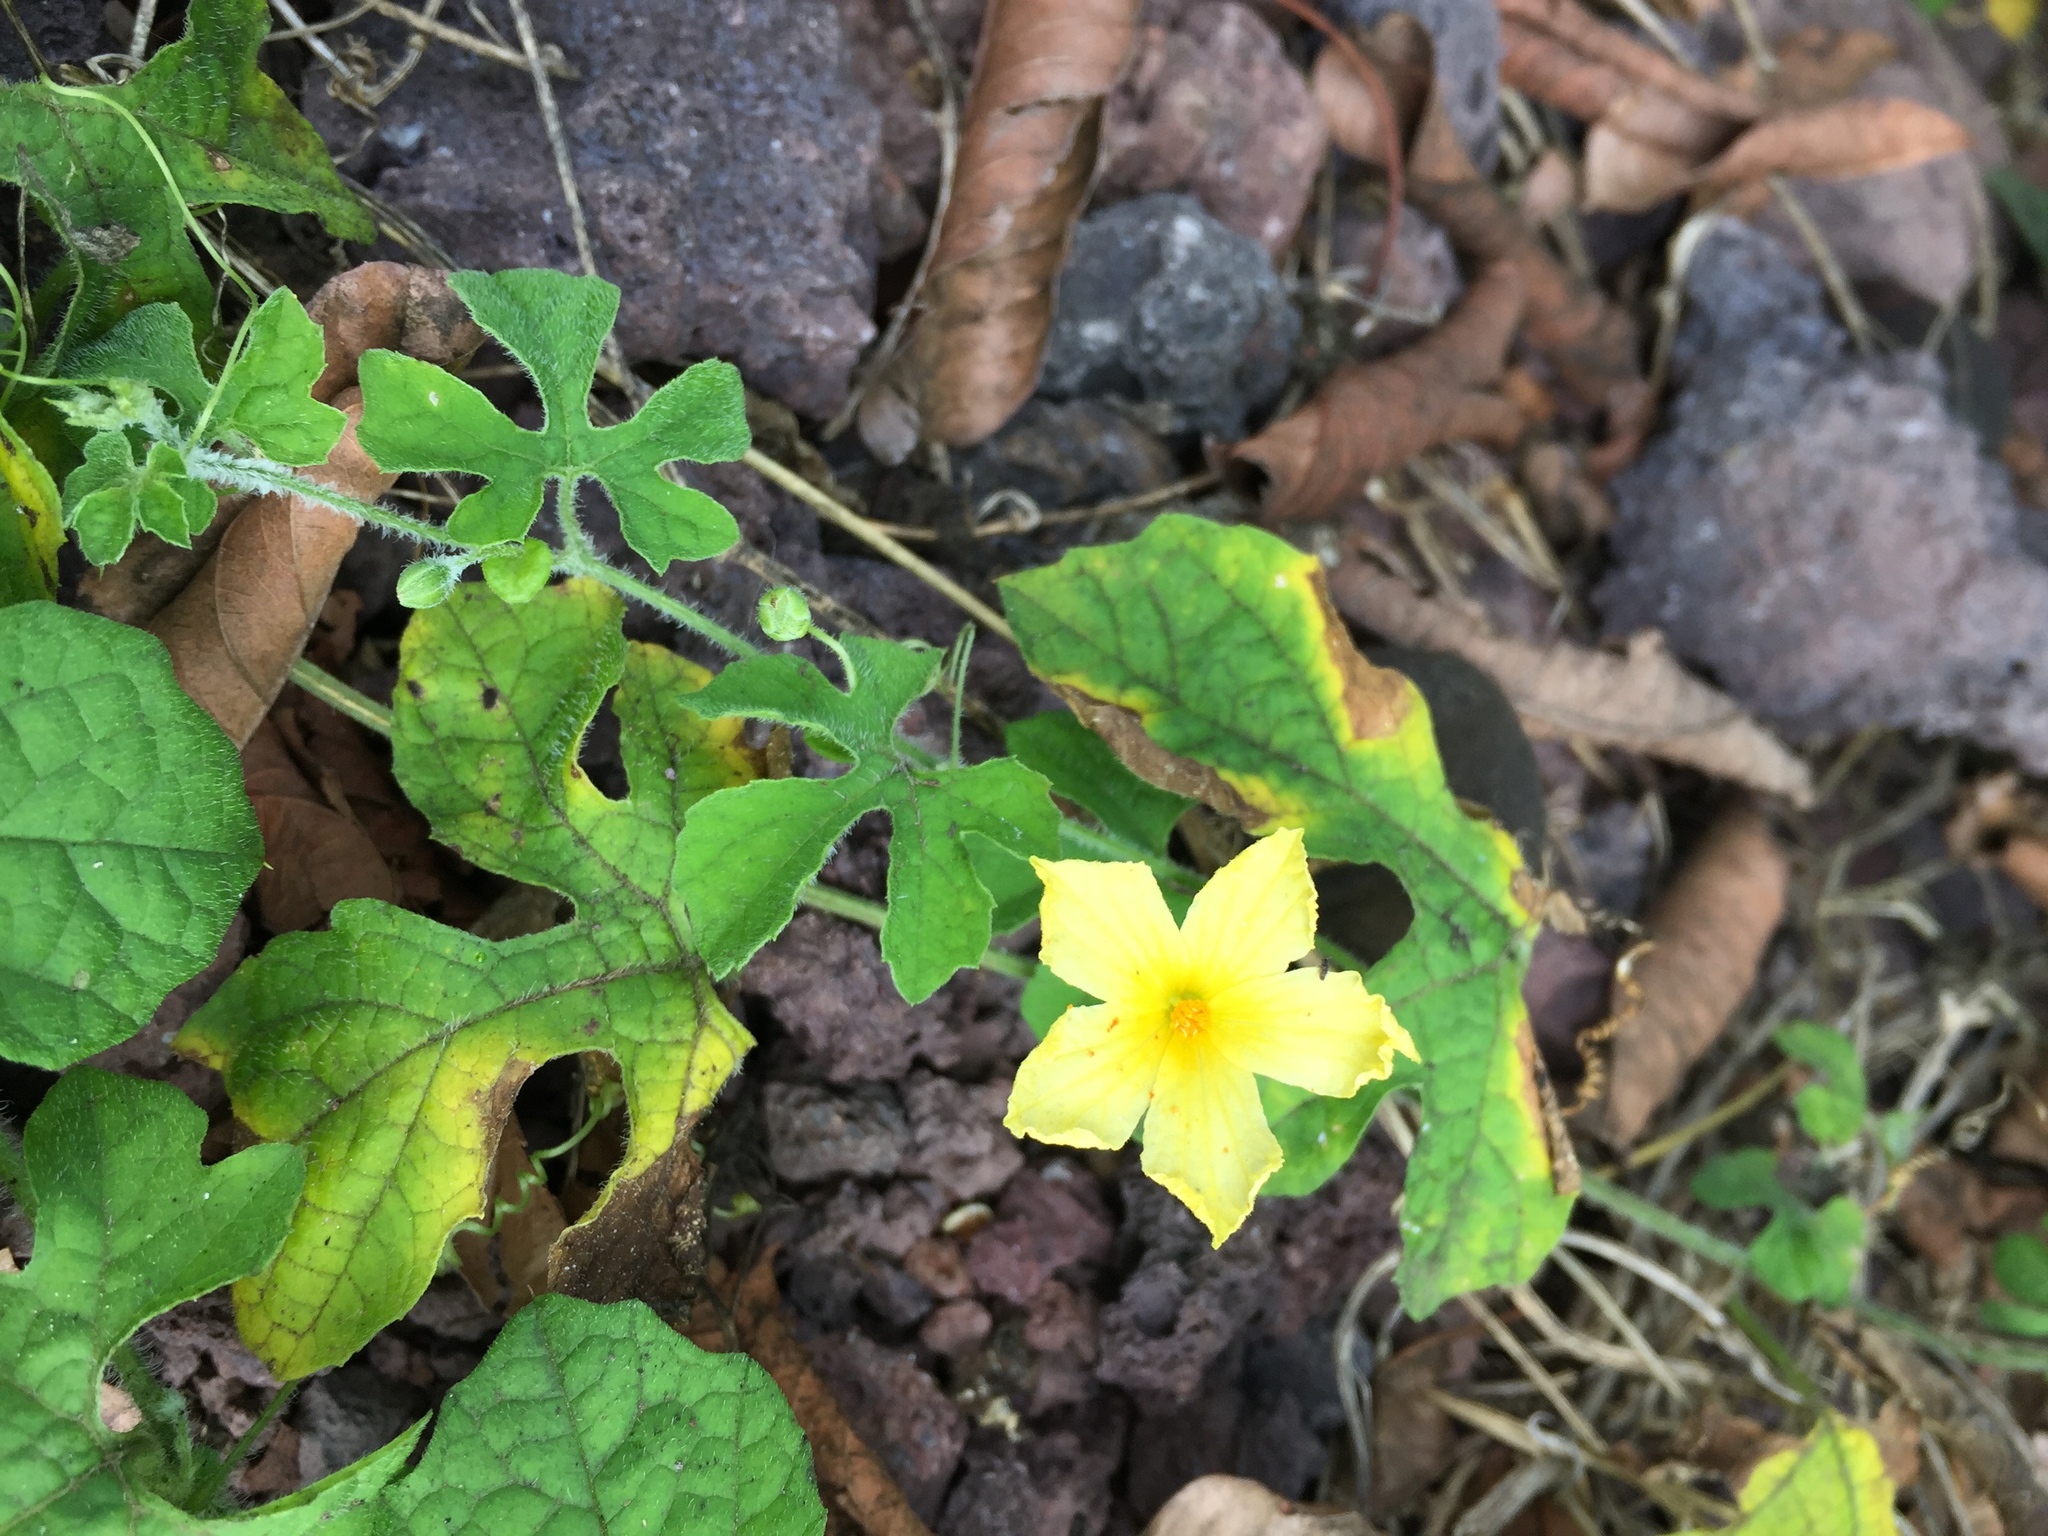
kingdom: Plantae
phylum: Tracheophyta
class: Magnoliopsida
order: Cucurbitales
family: Cucurbitaceae
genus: Momordica
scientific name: Momordica charantia
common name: Balsampear
